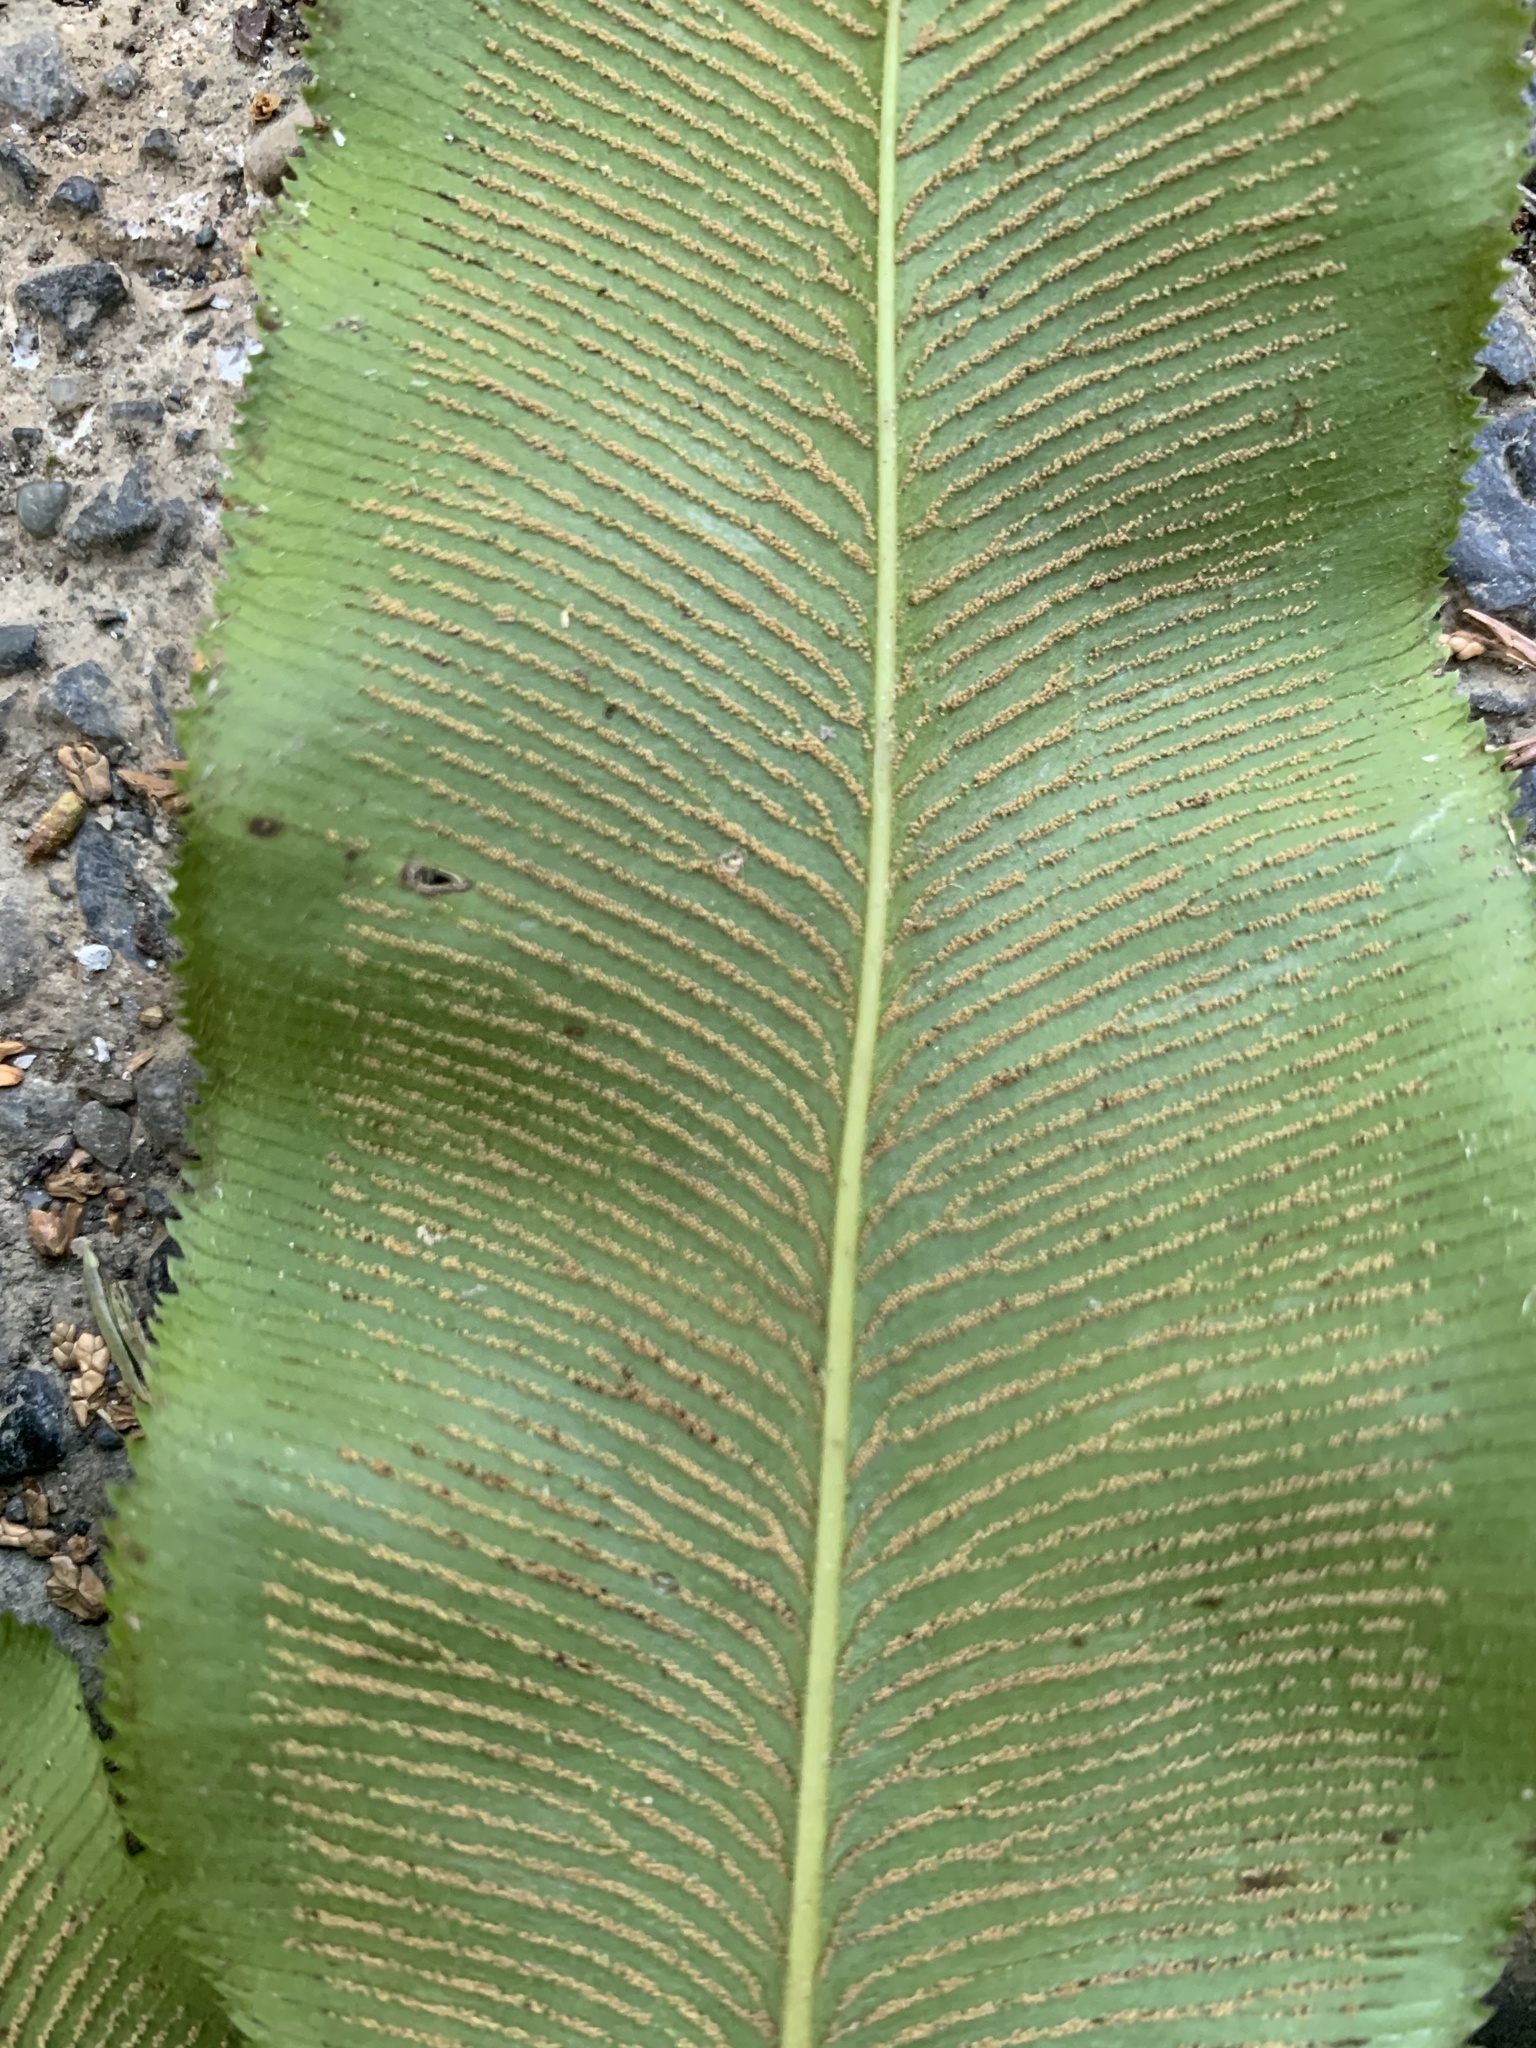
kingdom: Plantae
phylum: Tracheophyta
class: Polypodiopsida
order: Polypodiales
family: Pteridaceae
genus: Coniogramme
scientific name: Coniogramme intermedia
